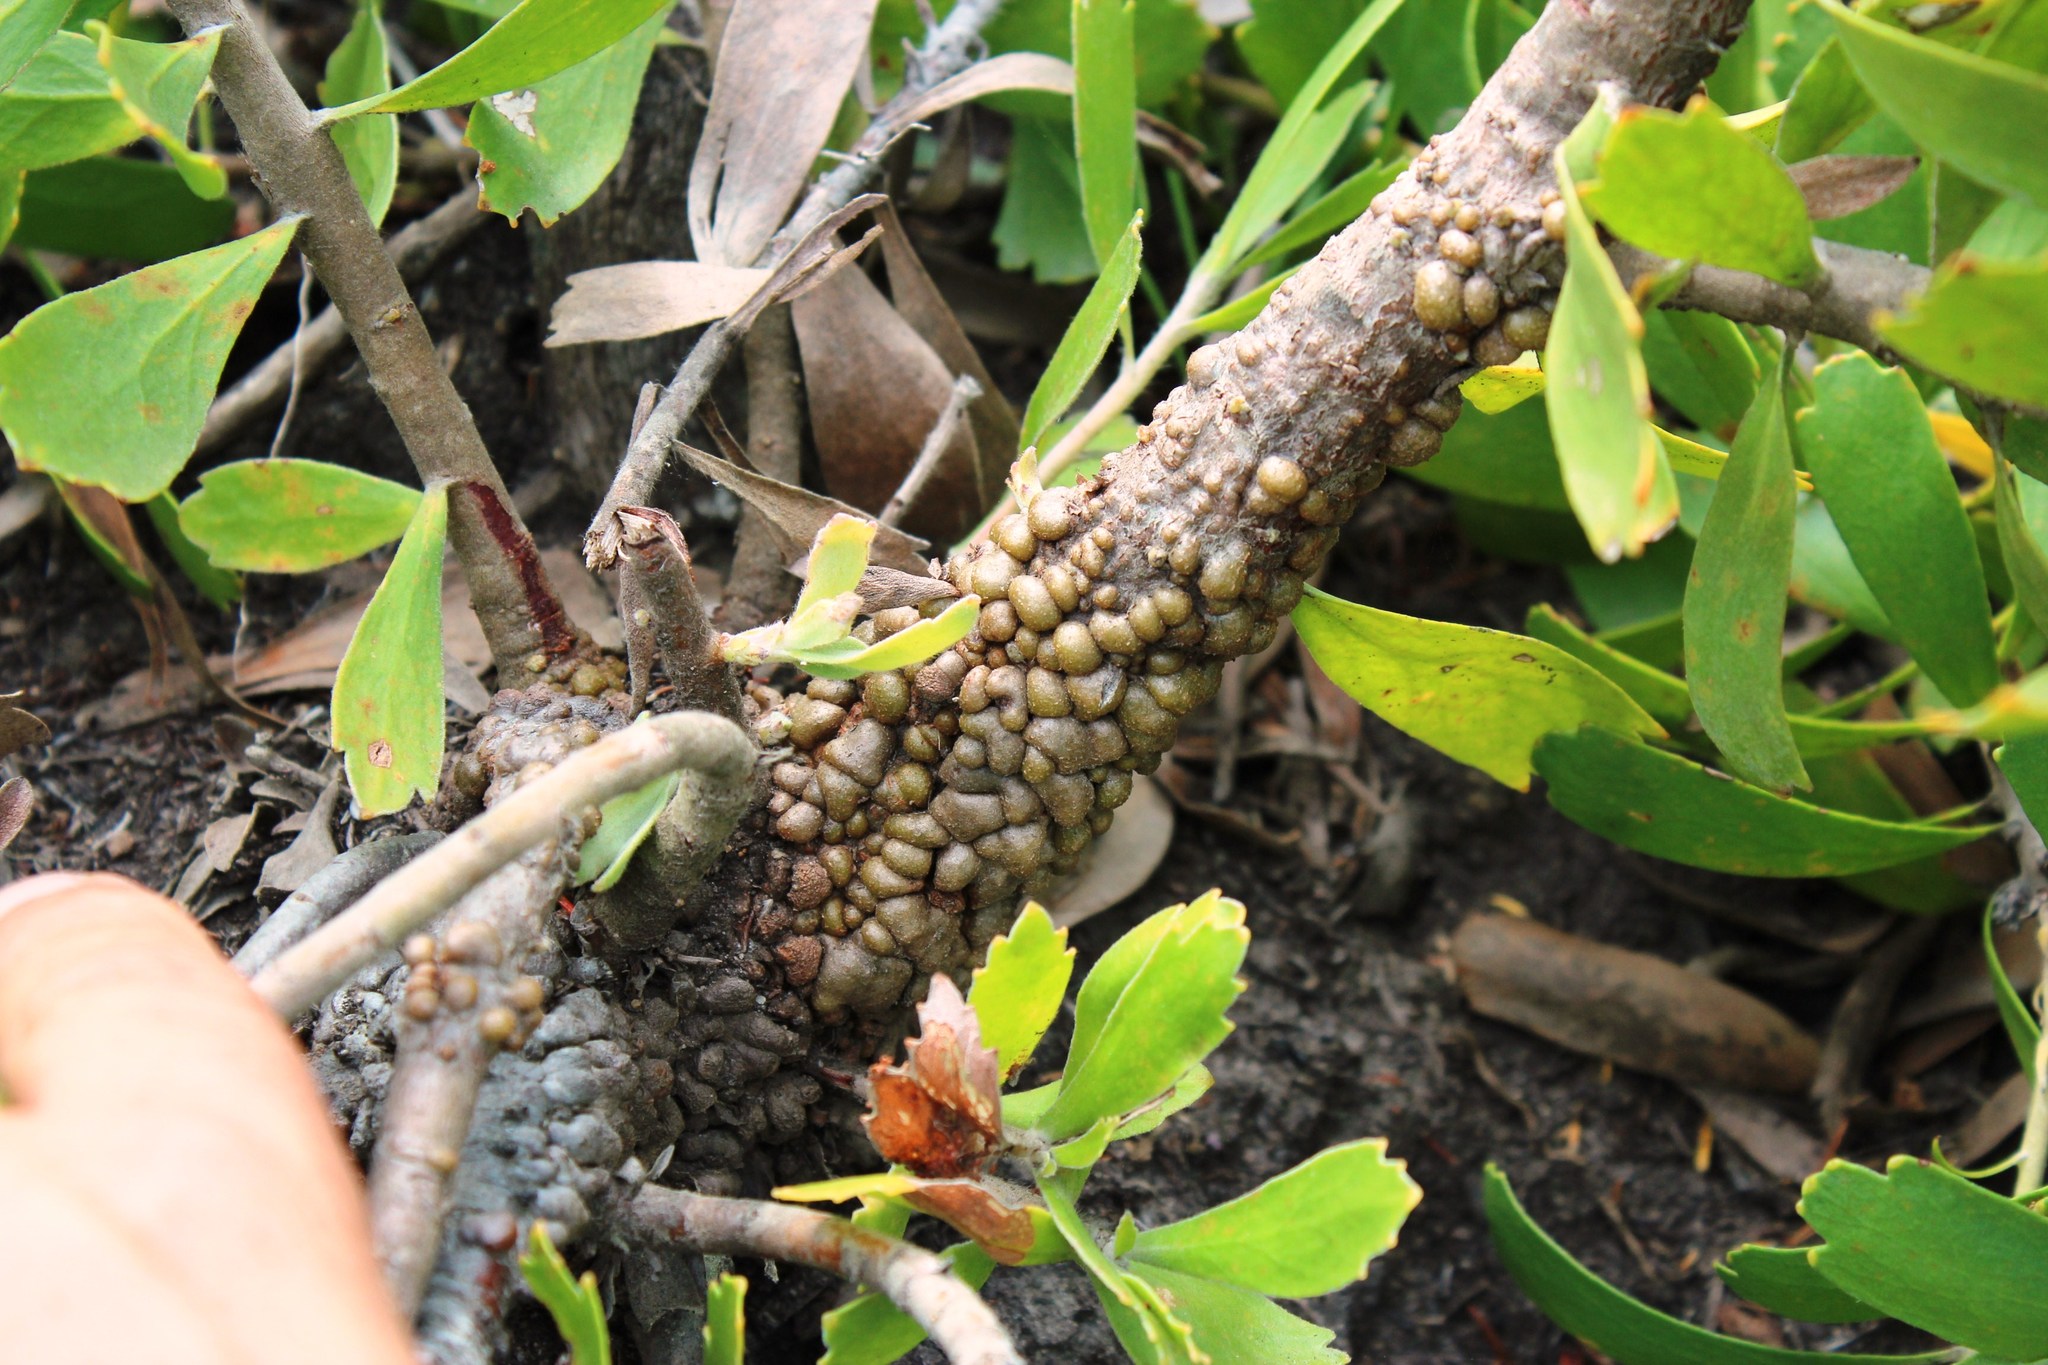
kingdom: Plantae
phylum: Tracheophyta
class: Magnoliopsida
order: Proteales
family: Proteaceae
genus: Leucospermum
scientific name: Leucospermum cuneiforme
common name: Common pincushion
